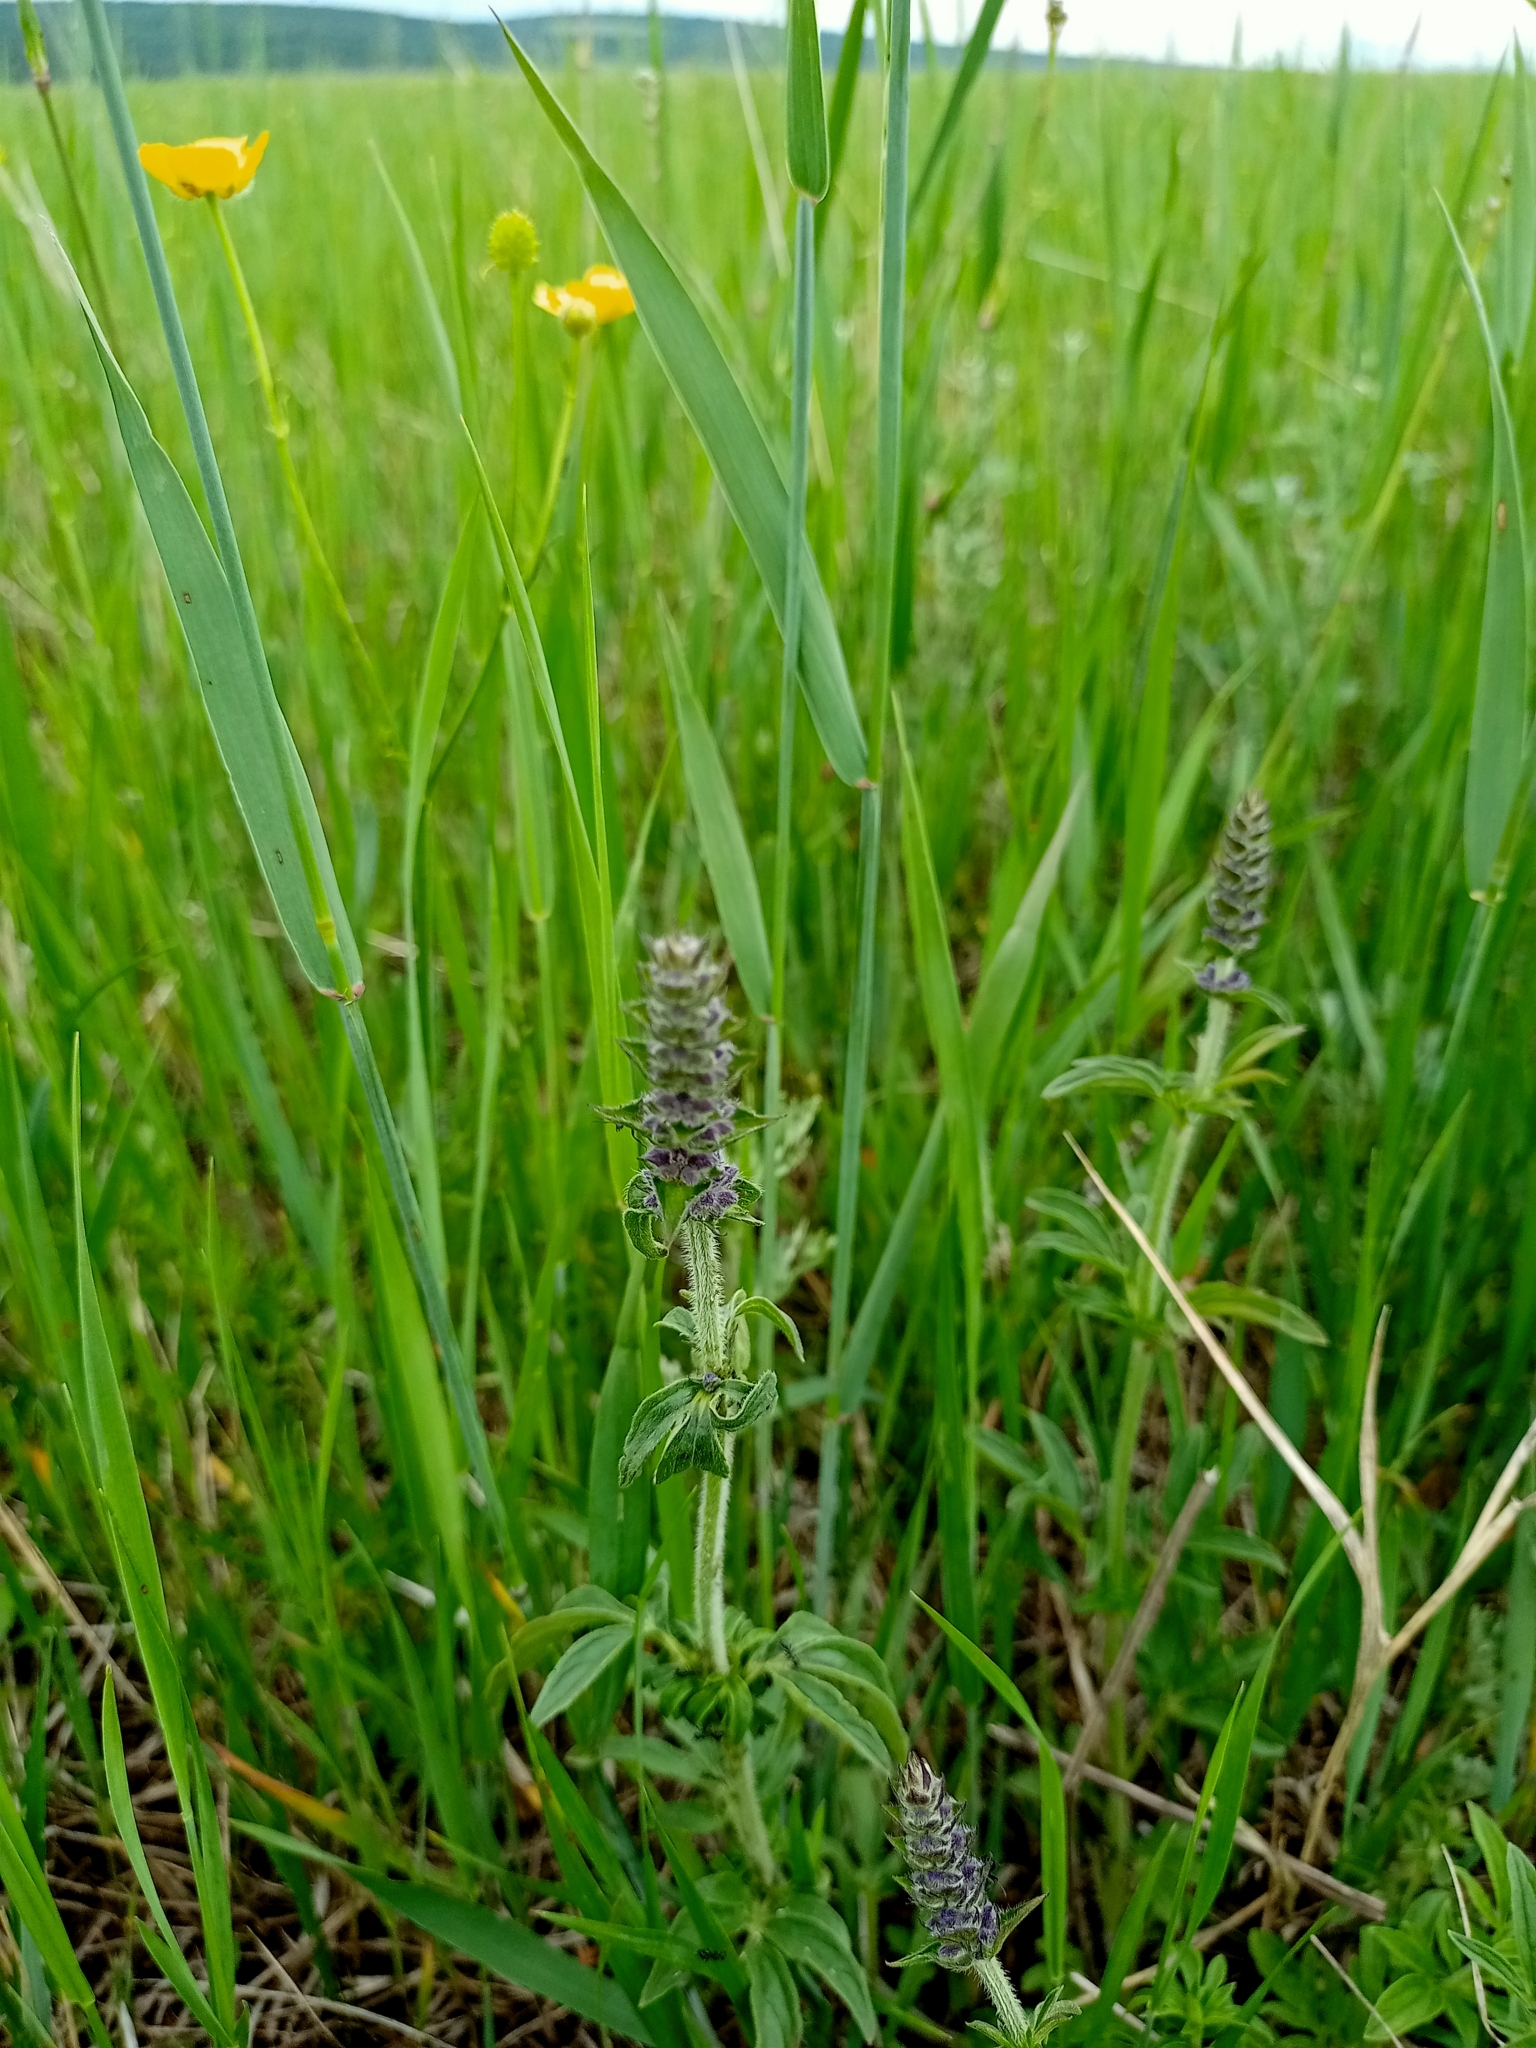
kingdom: Plantae
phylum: Tracheophyta
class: Magnoliopsida
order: Lamiales
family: Lamiaceae
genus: Nepeta
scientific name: Nepeta multifida
